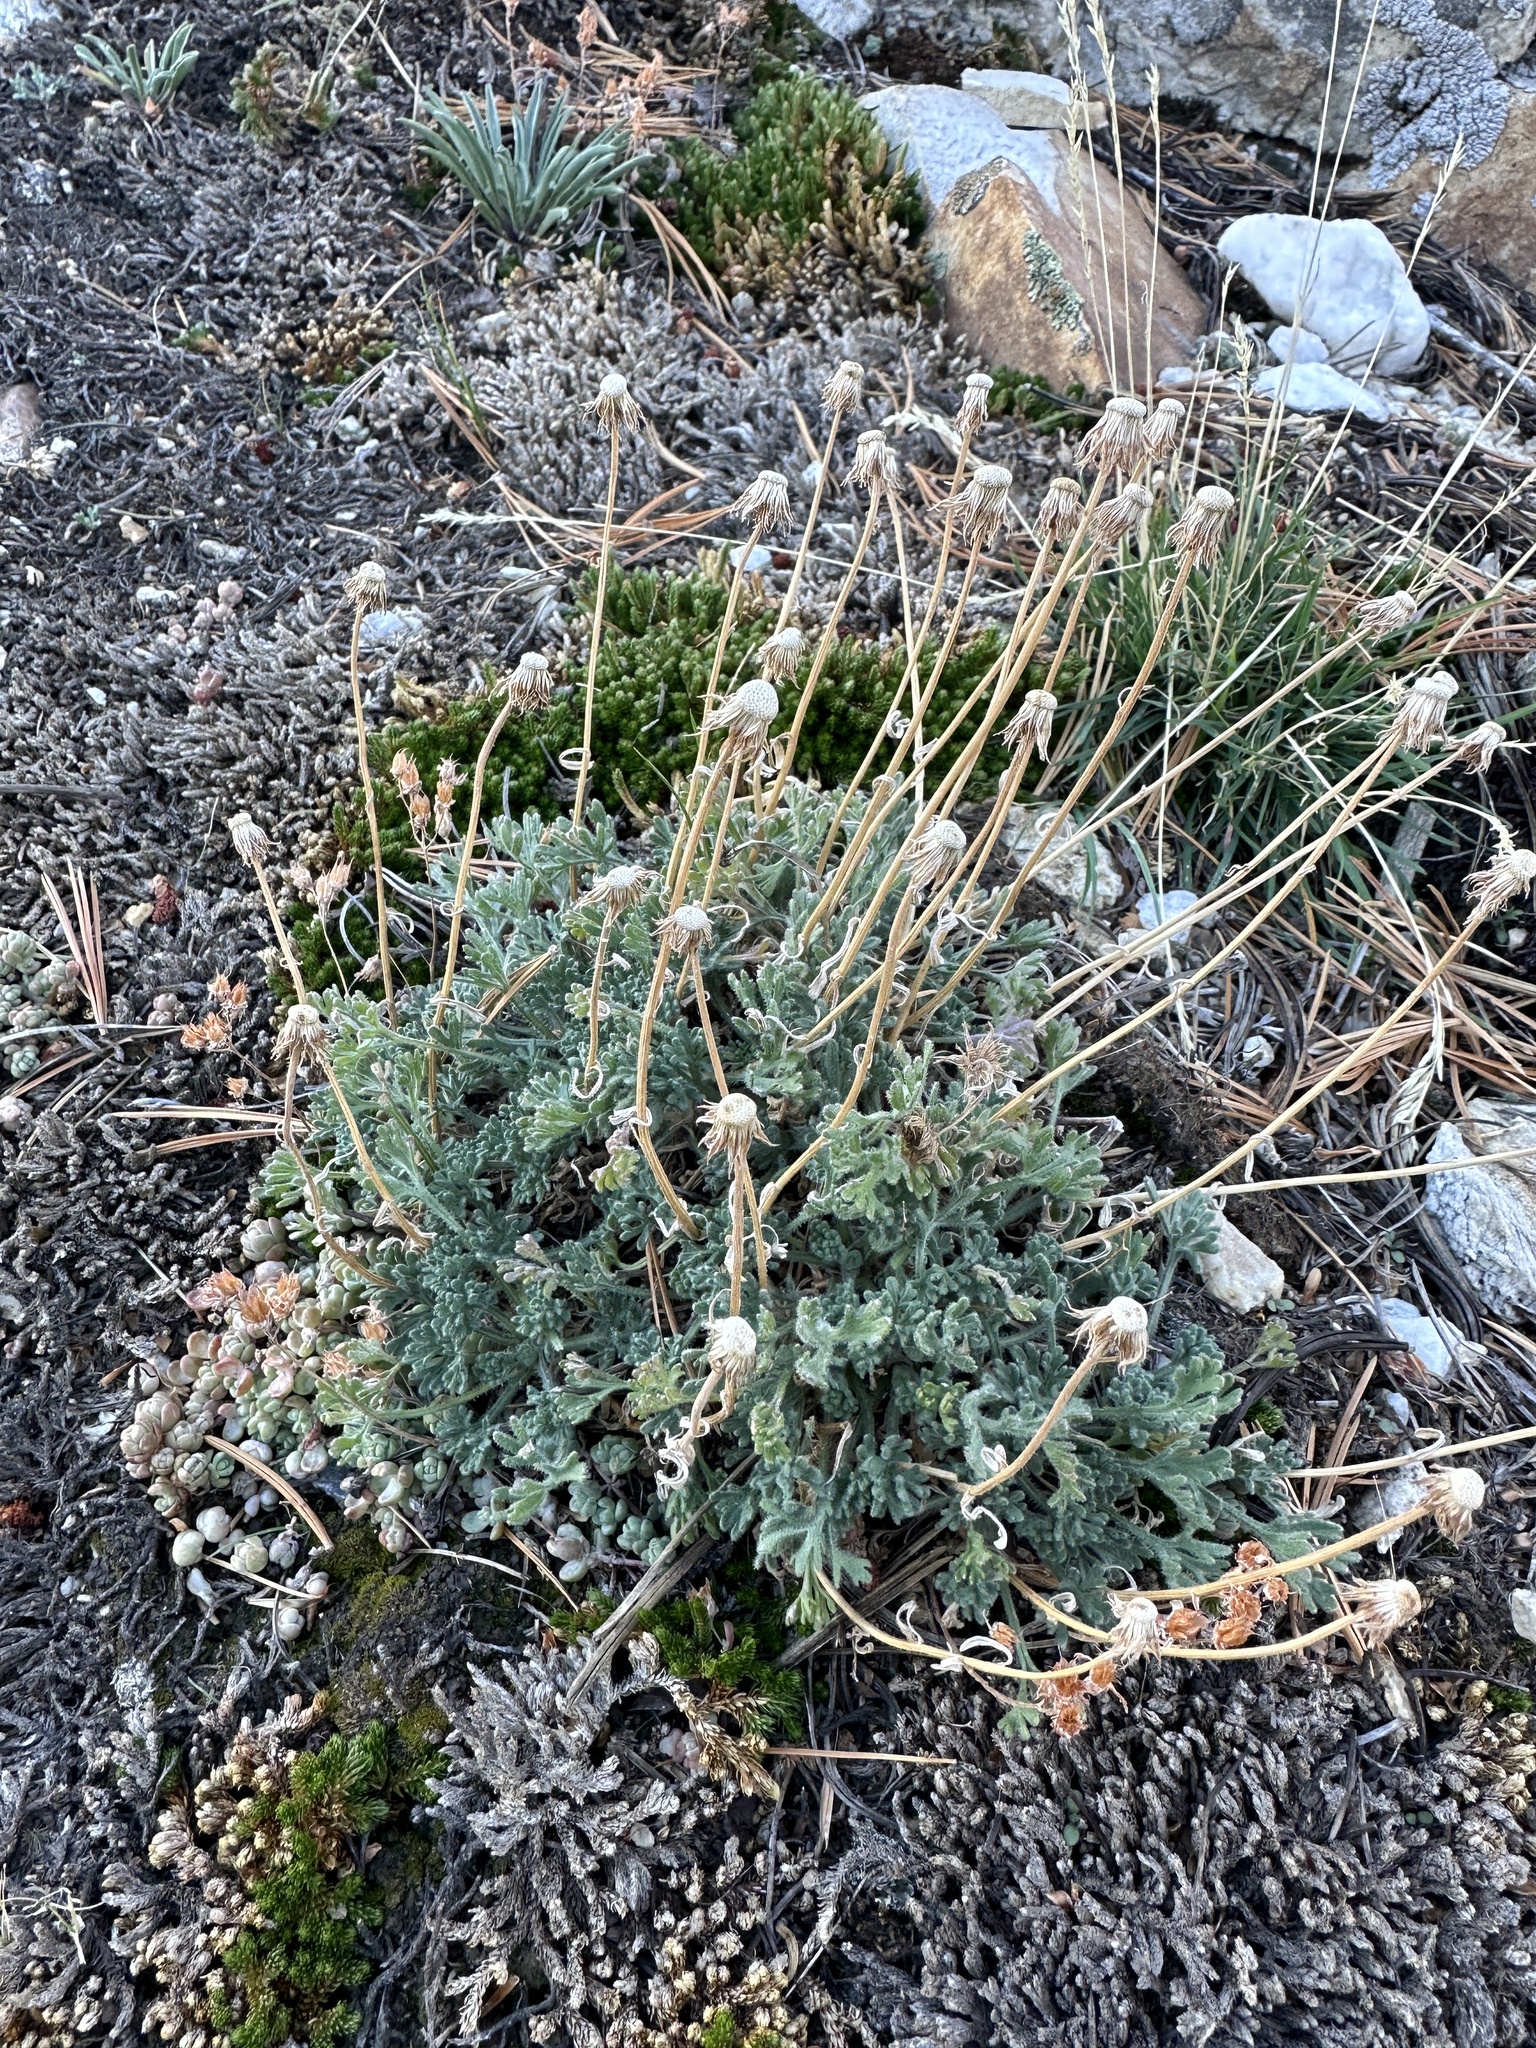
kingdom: Plantae
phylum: Tracheophyta
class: Magnoliopsida
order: Asterales
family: Asteraceae
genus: Erigeron
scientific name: Erigeron compositus
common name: Dwarf mountain fleabane
